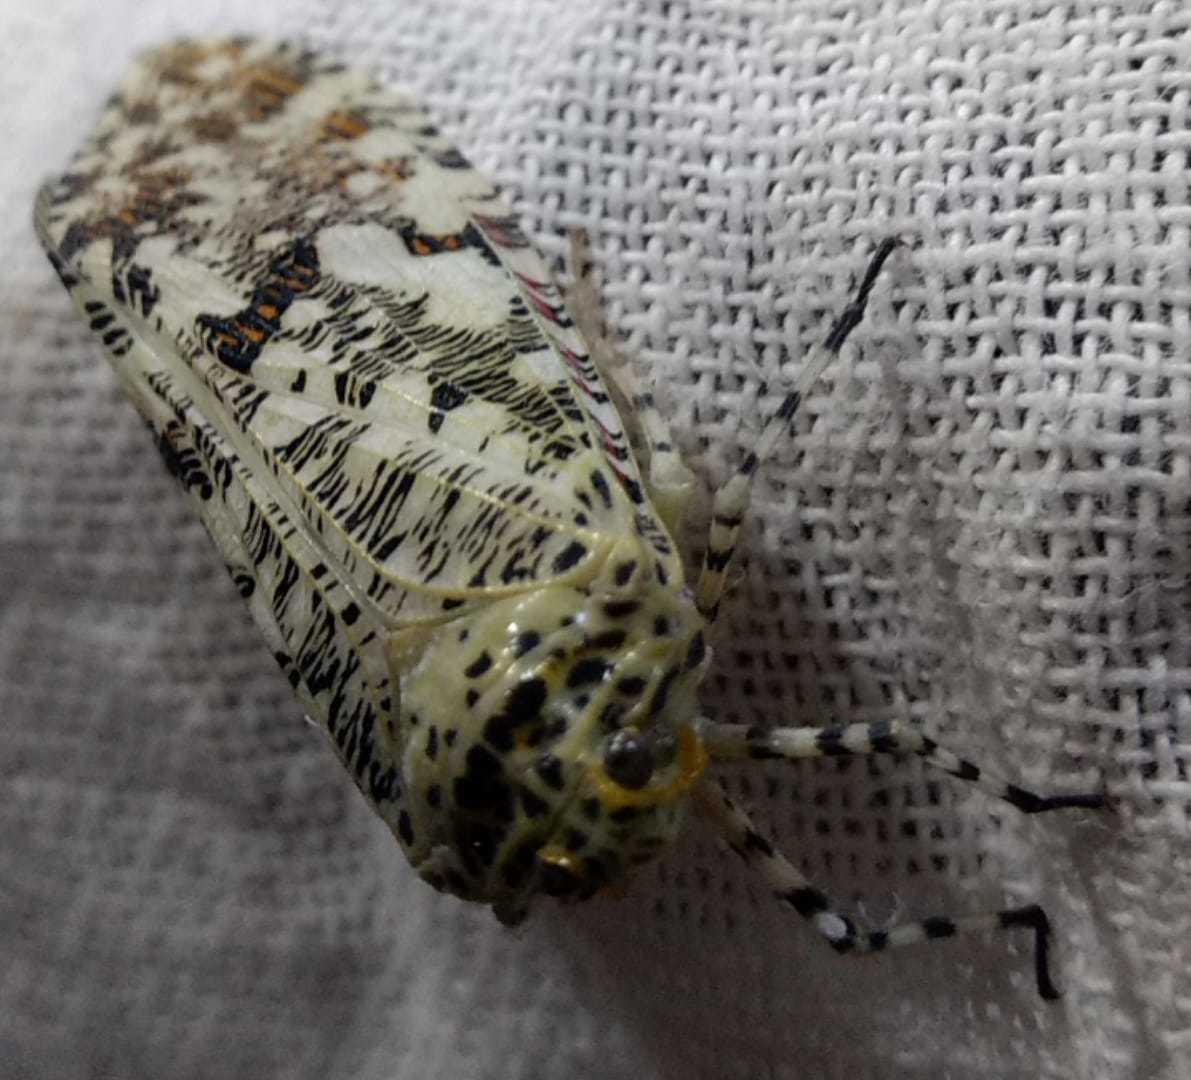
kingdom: Animalia
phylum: Arthropoda
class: Insecta
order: Hemiptera
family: Fulgoridae
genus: Phenax
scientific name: Phenax variegata
